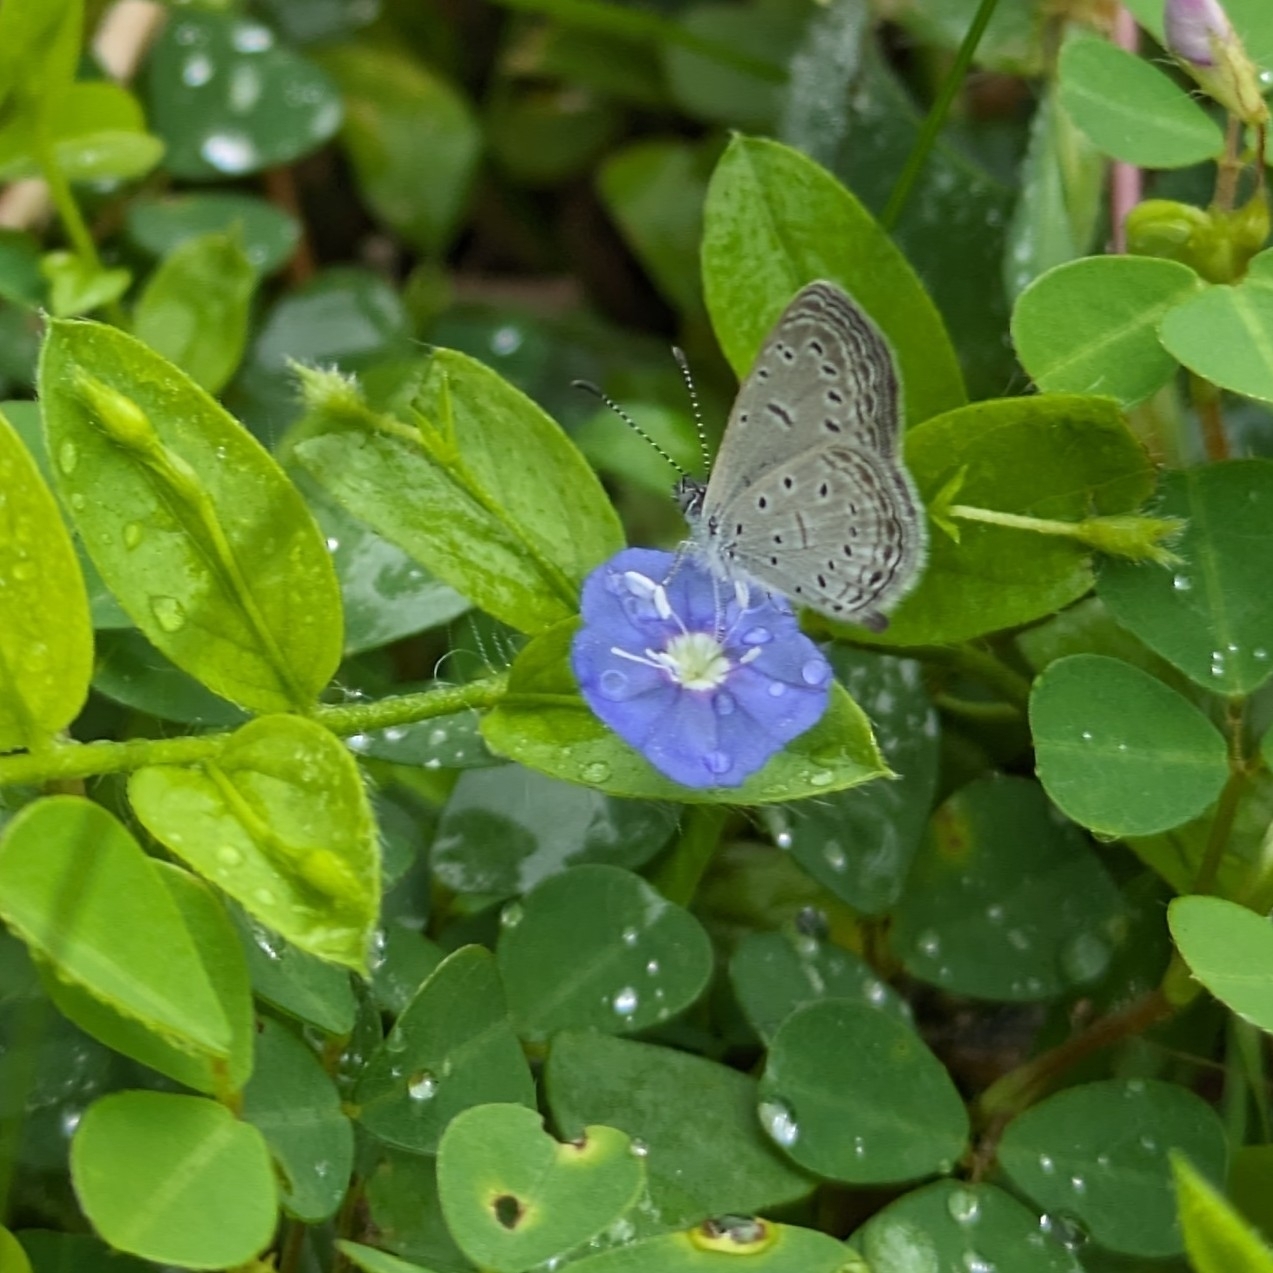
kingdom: Animalia
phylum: Arthropoda
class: Insecta
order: Lepidoptera
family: Lycaenidae
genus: Zizula
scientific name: Zizula hylax
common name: Gaika blue
